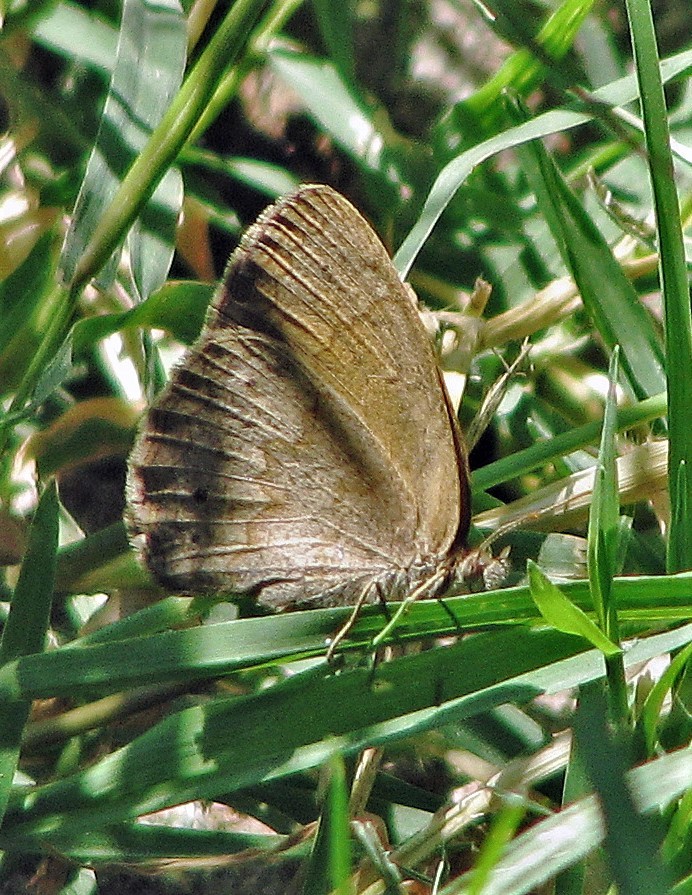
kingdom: Animalia
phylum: Arthropoda
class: Insecta
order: Lepidoptera
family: Nymphalidae
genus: Yphthimoides
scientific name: Yphthimoides celmis
